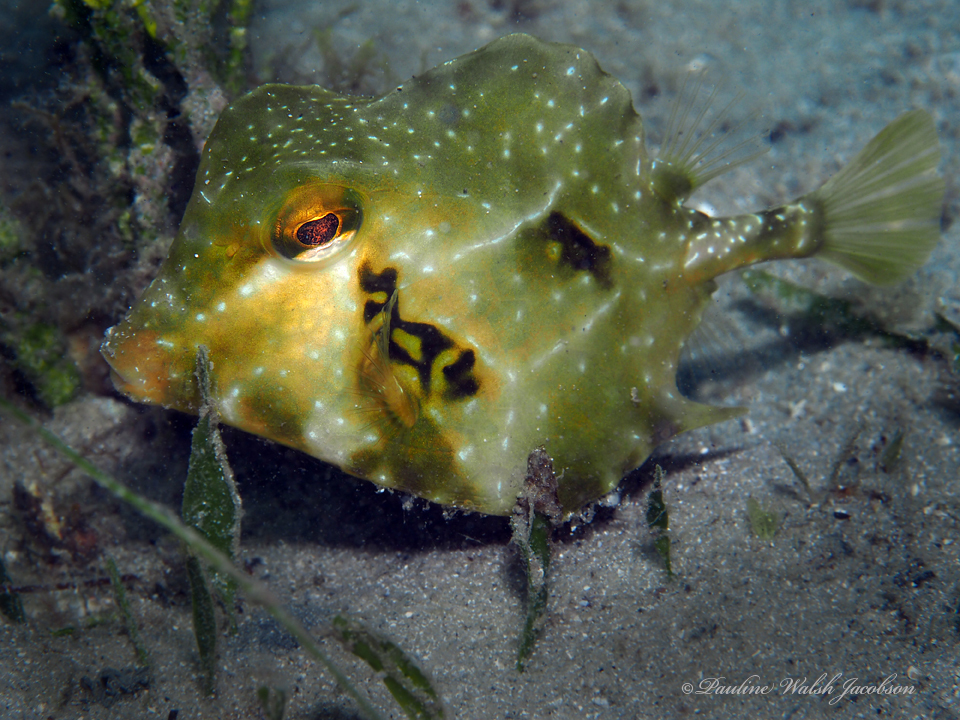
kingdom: Animalia
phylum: Chordata
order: Tetraodontiformes
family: Ostraciidae
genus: Lactophrys
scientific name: Lactophrys trigonus
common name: Buffalo trunkfish
